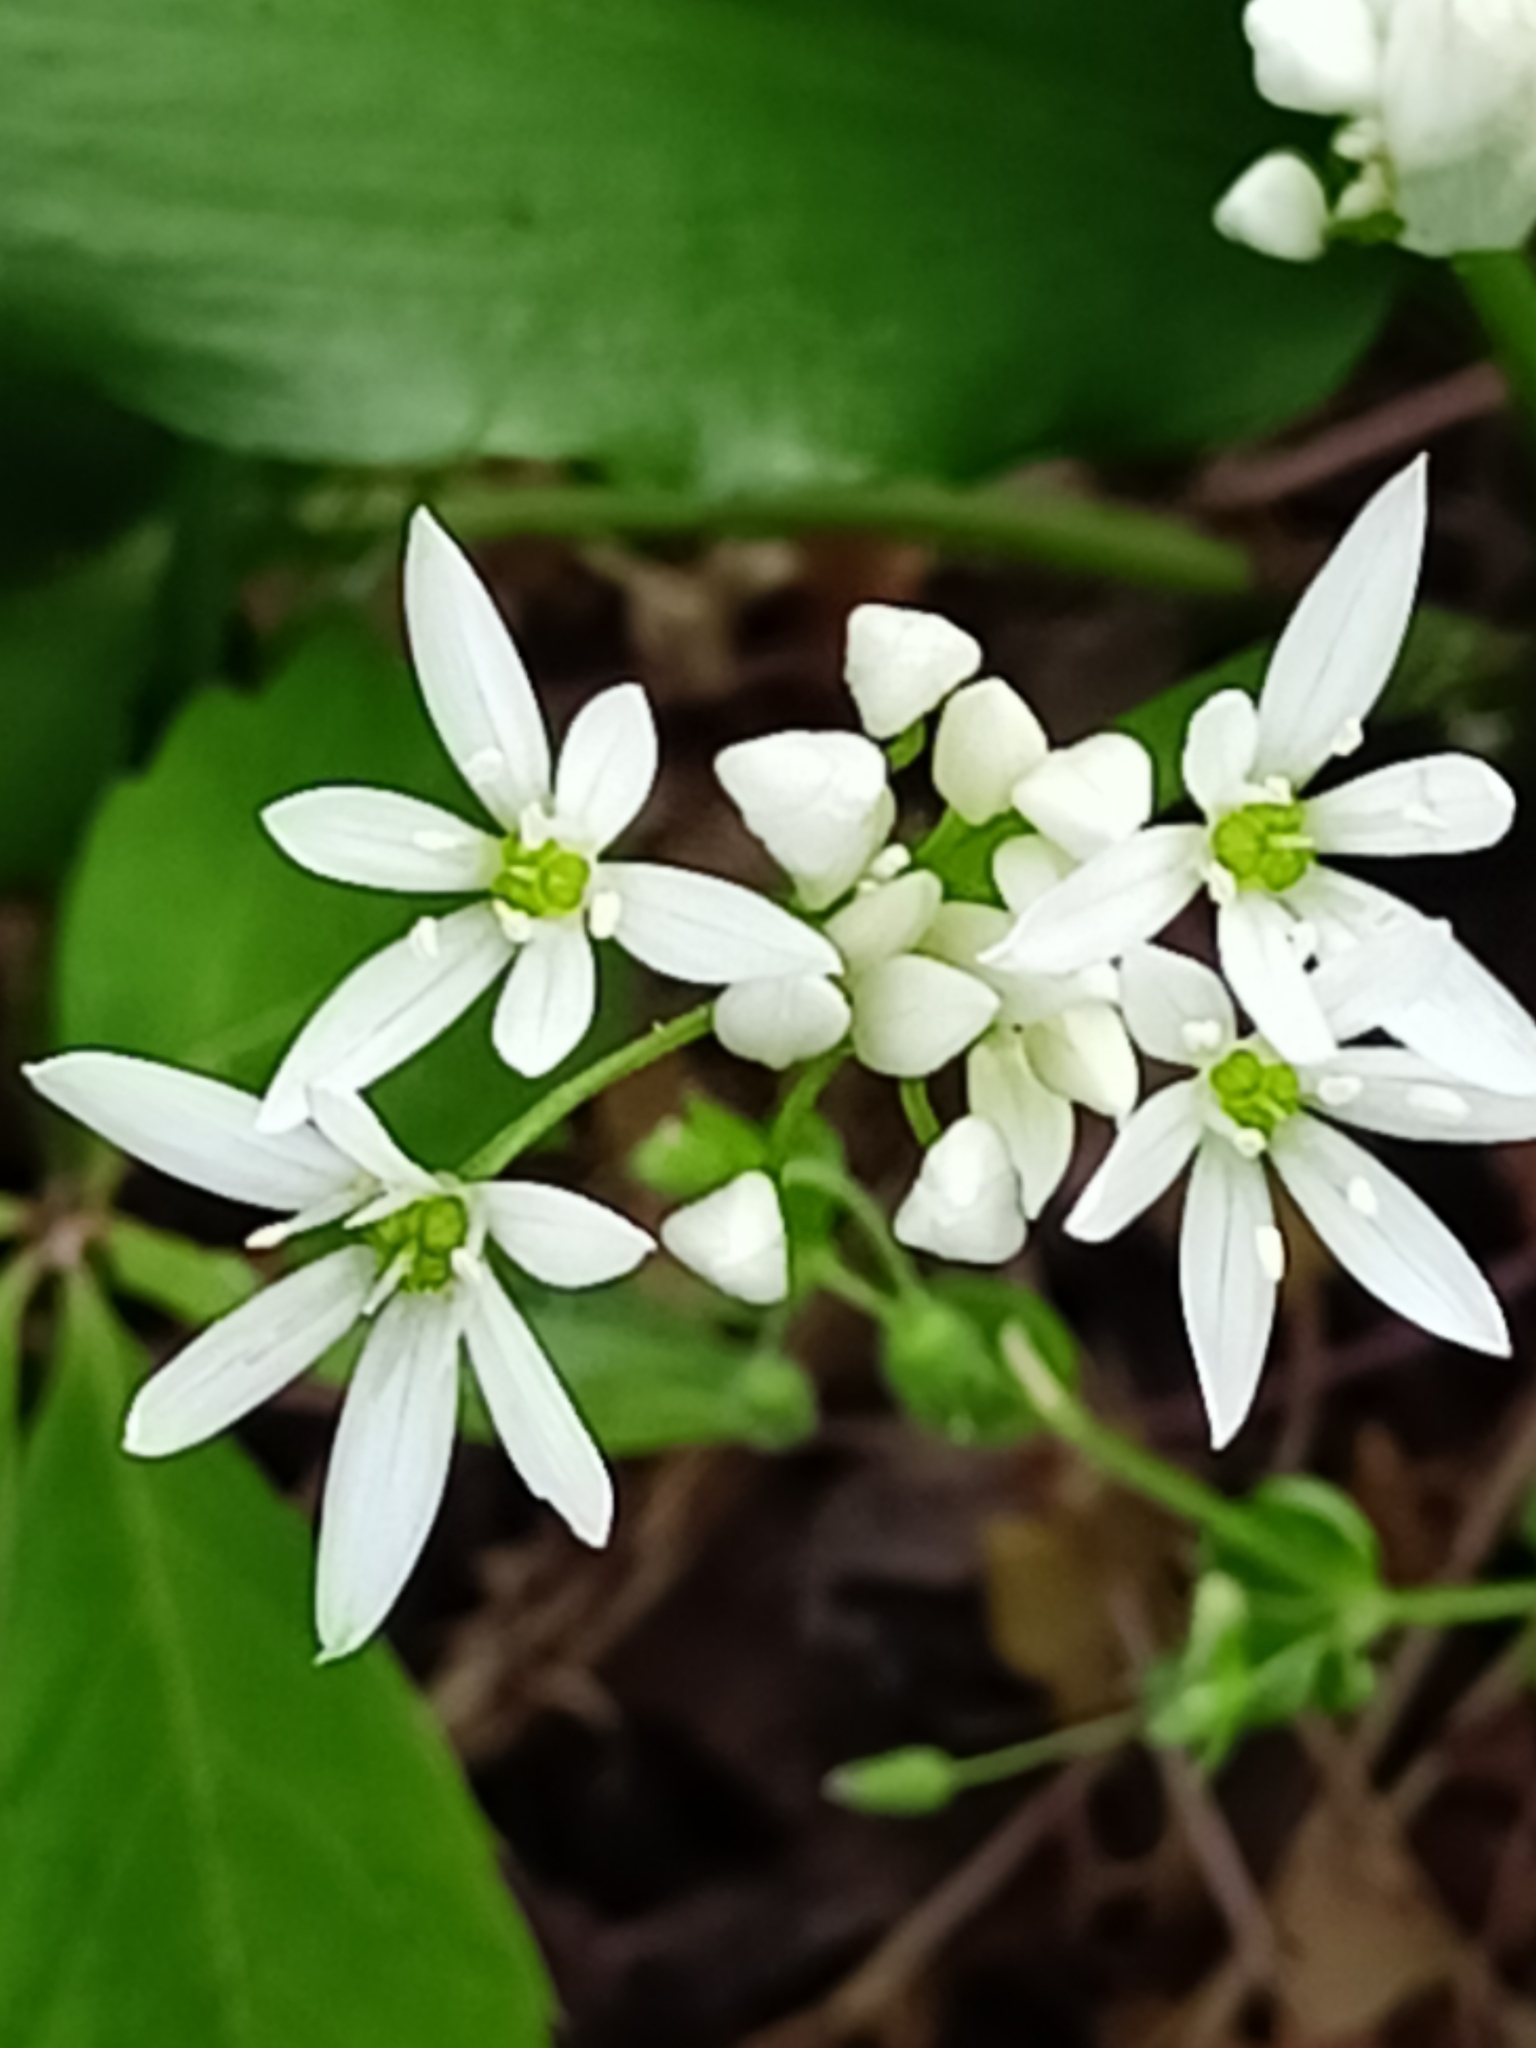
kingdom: Plantae
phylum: Tracheophyta
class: Liliopsida
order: Asparagales
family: Amaryllidaceae
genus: Allium
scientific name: Allium ursinum
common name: Ramsons
